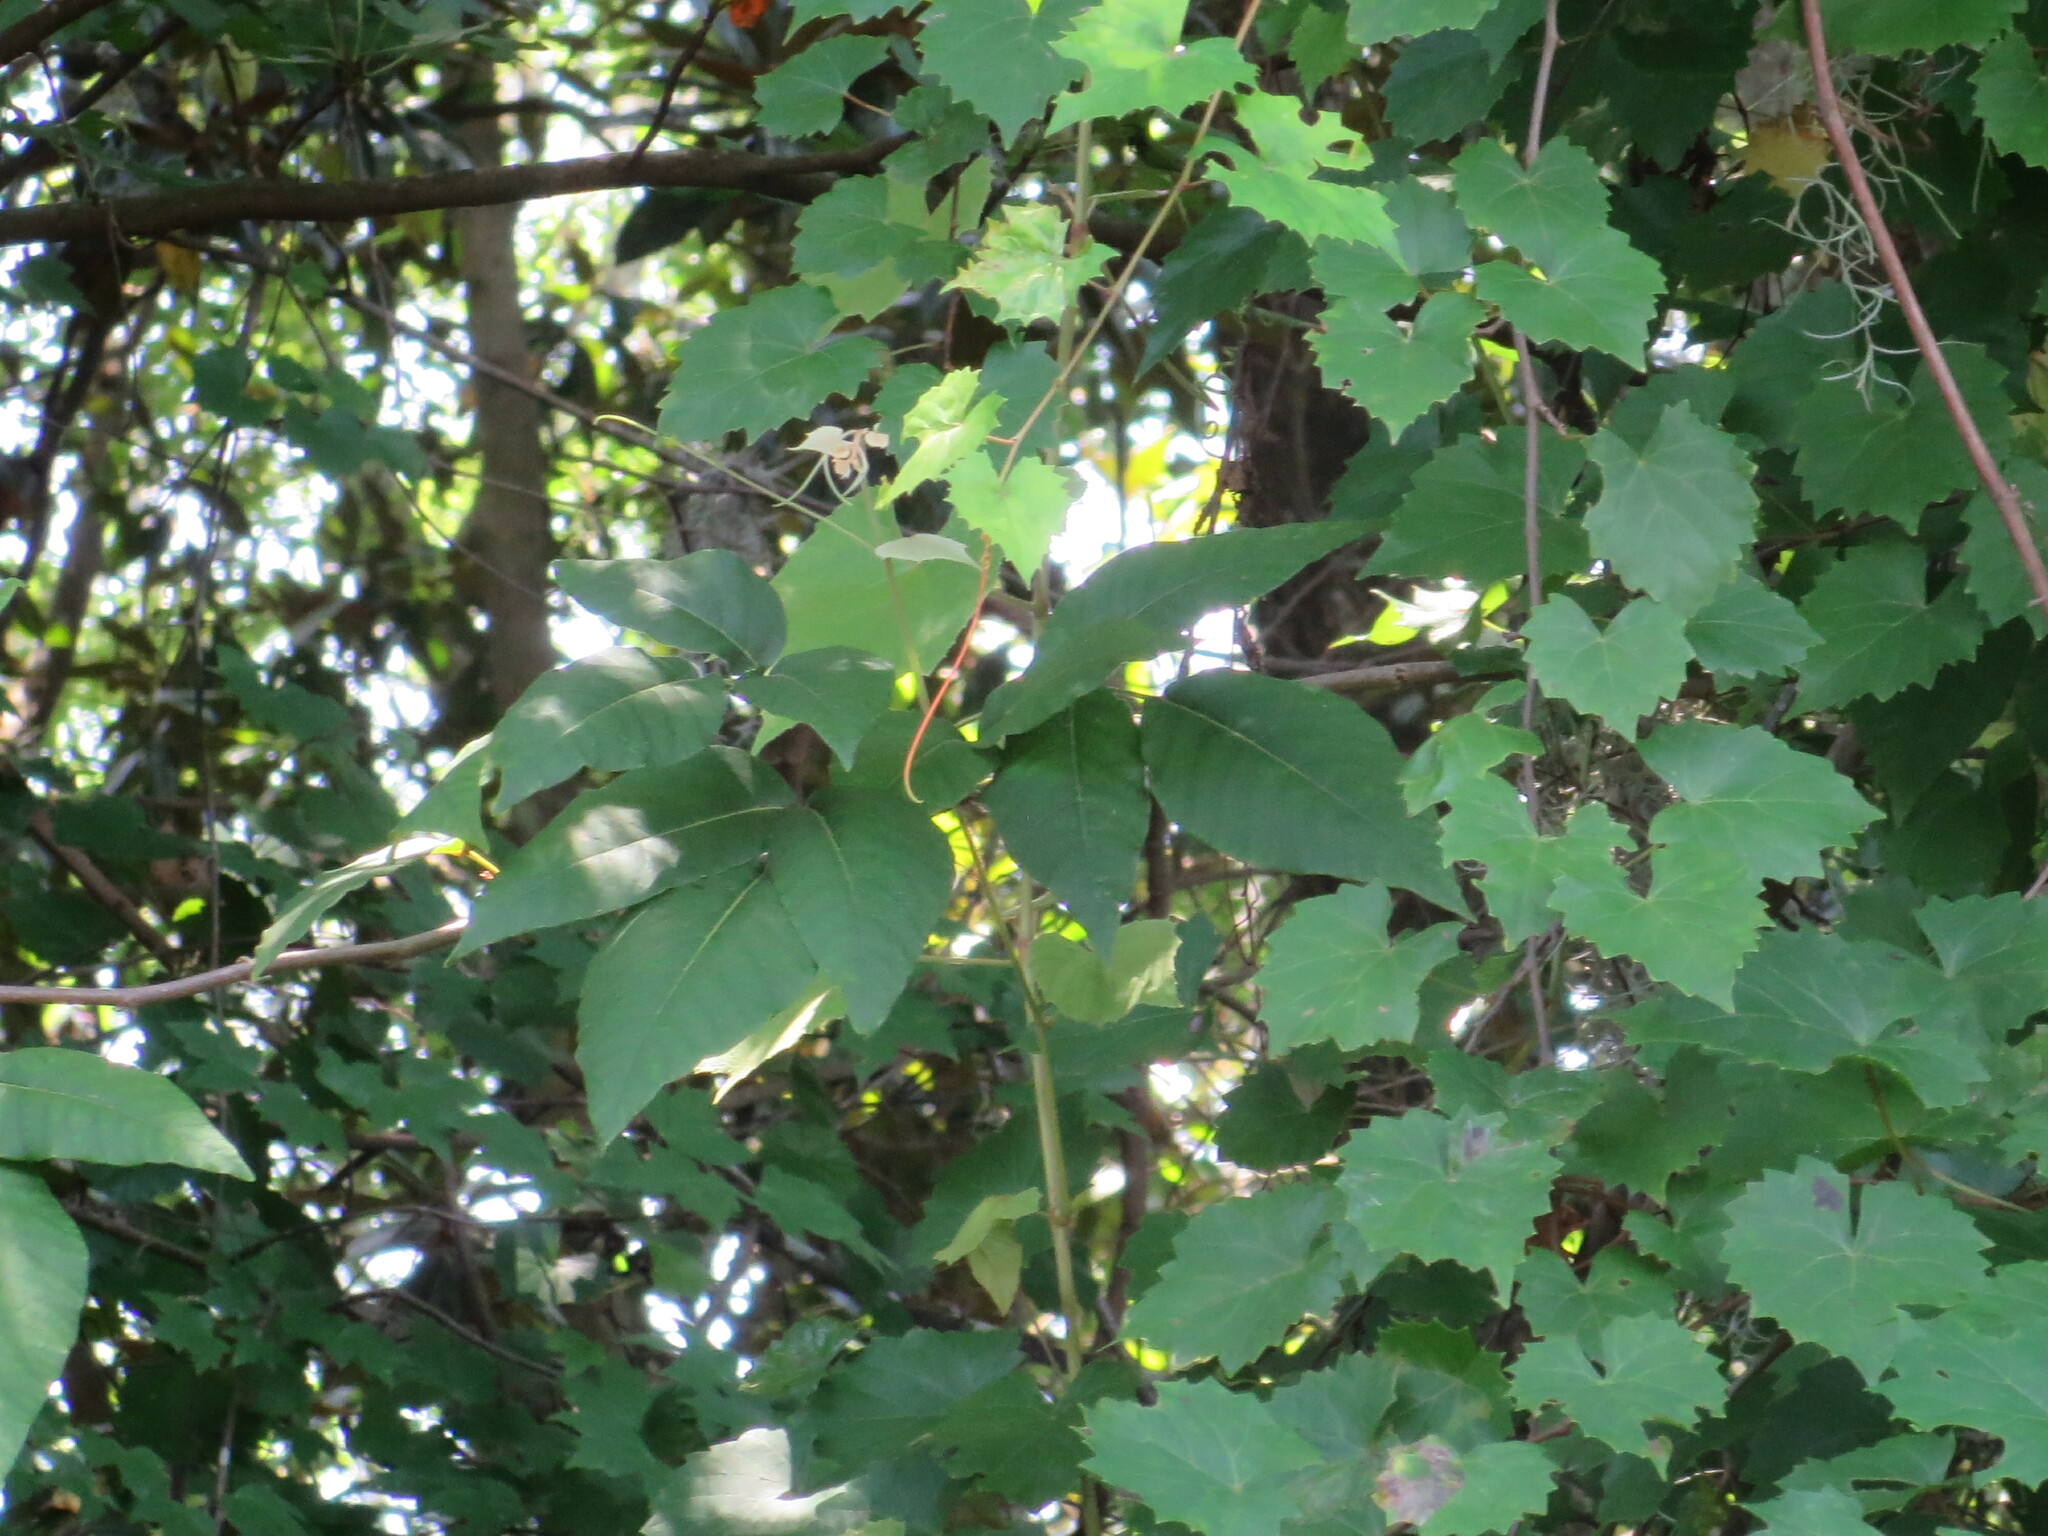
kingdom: Plantae
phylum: Tracheophyta
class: Magnoliopsida
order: Sapindales
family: Anacardiaceae
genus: Toxicodendron
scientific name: Toxicodendron radicans
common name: Poison ivy
